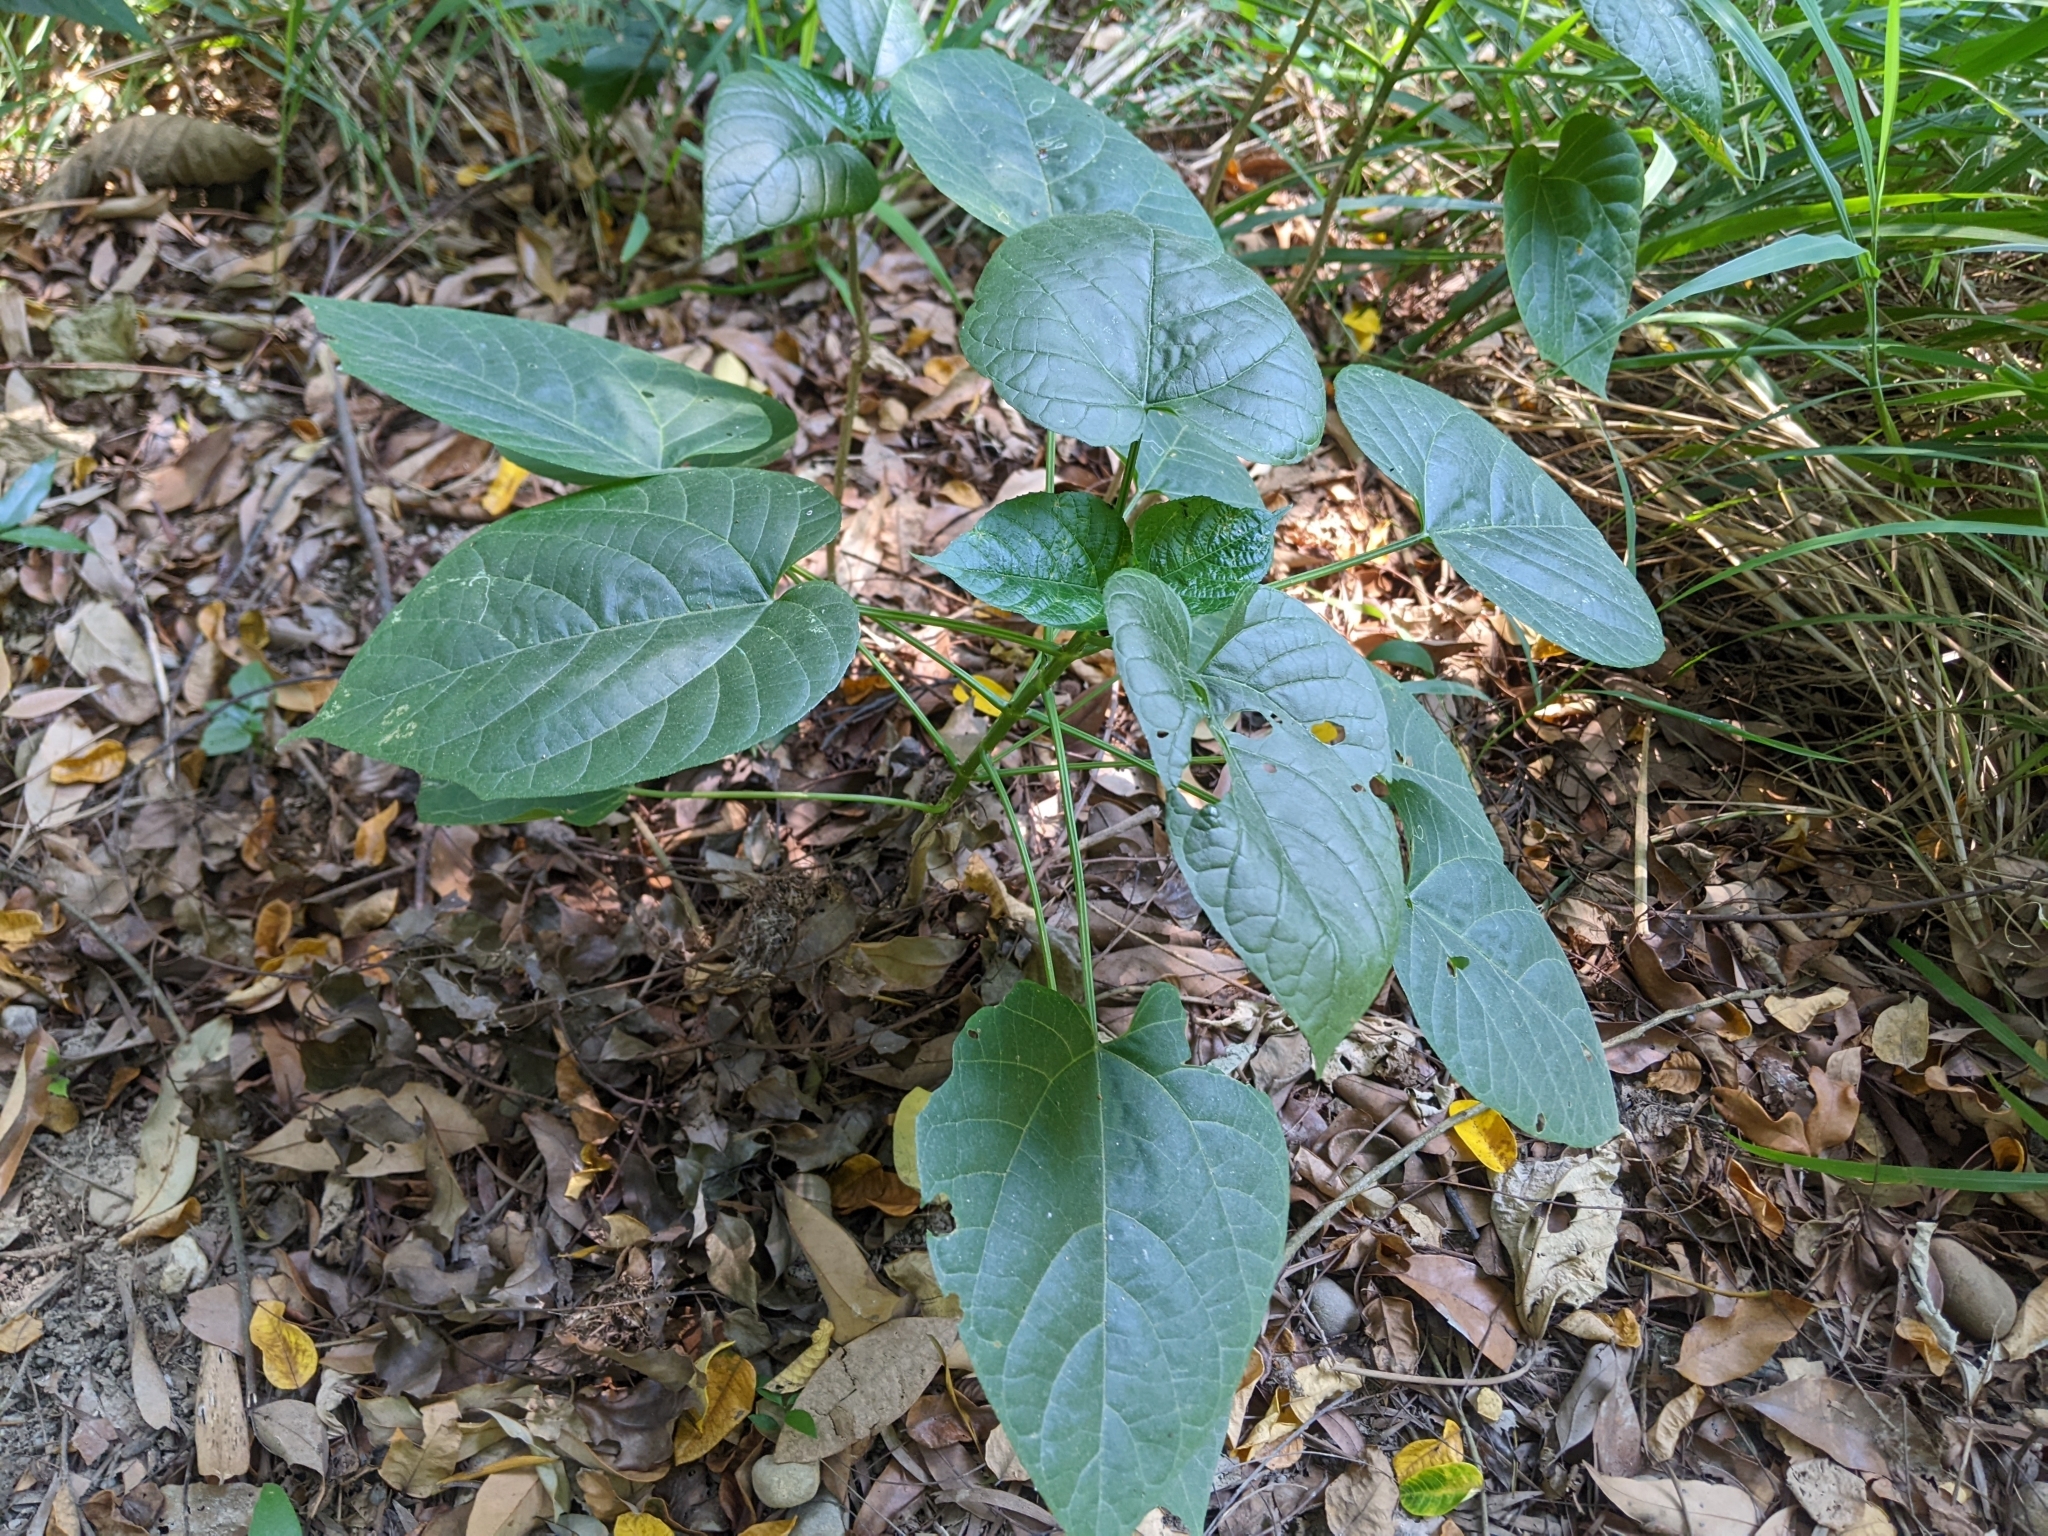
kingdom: Plantae
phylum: Tracheophyta
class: Magnoliopsida
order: Lamiales
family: Lamiaceae
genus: Clerodendrum
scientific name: Clerodendrum japonicum
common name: Japanese glorybower
